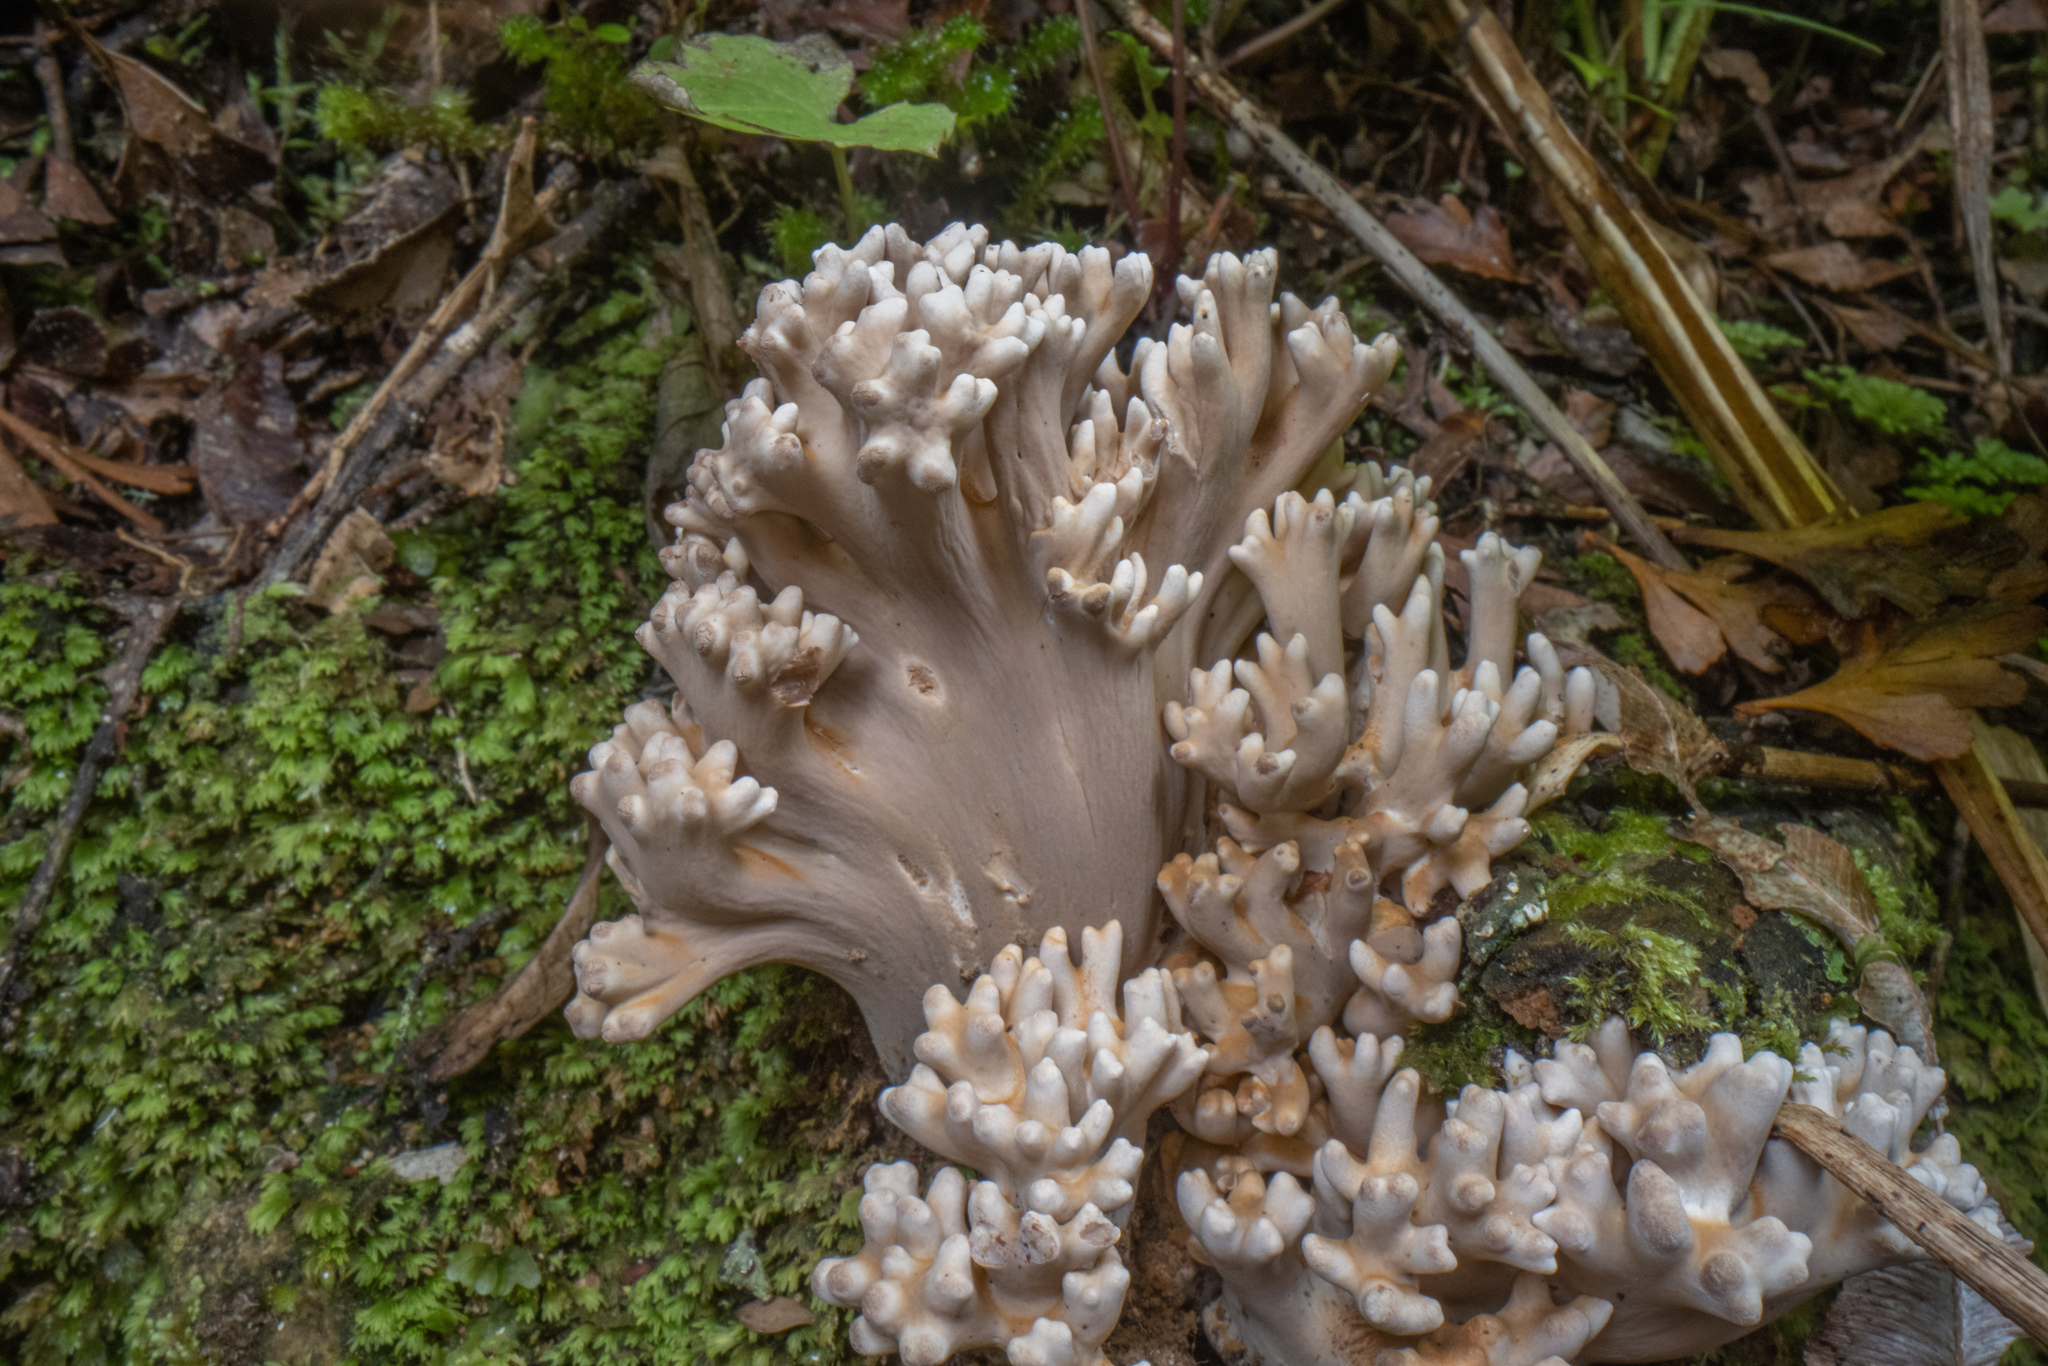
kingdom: Fungi
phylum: Basidiomycota
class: Agaricomycetes
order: Gomphales
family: Gomphaceae
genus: Phaeoclavulina
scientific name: Phaeoclavulina zippelii
